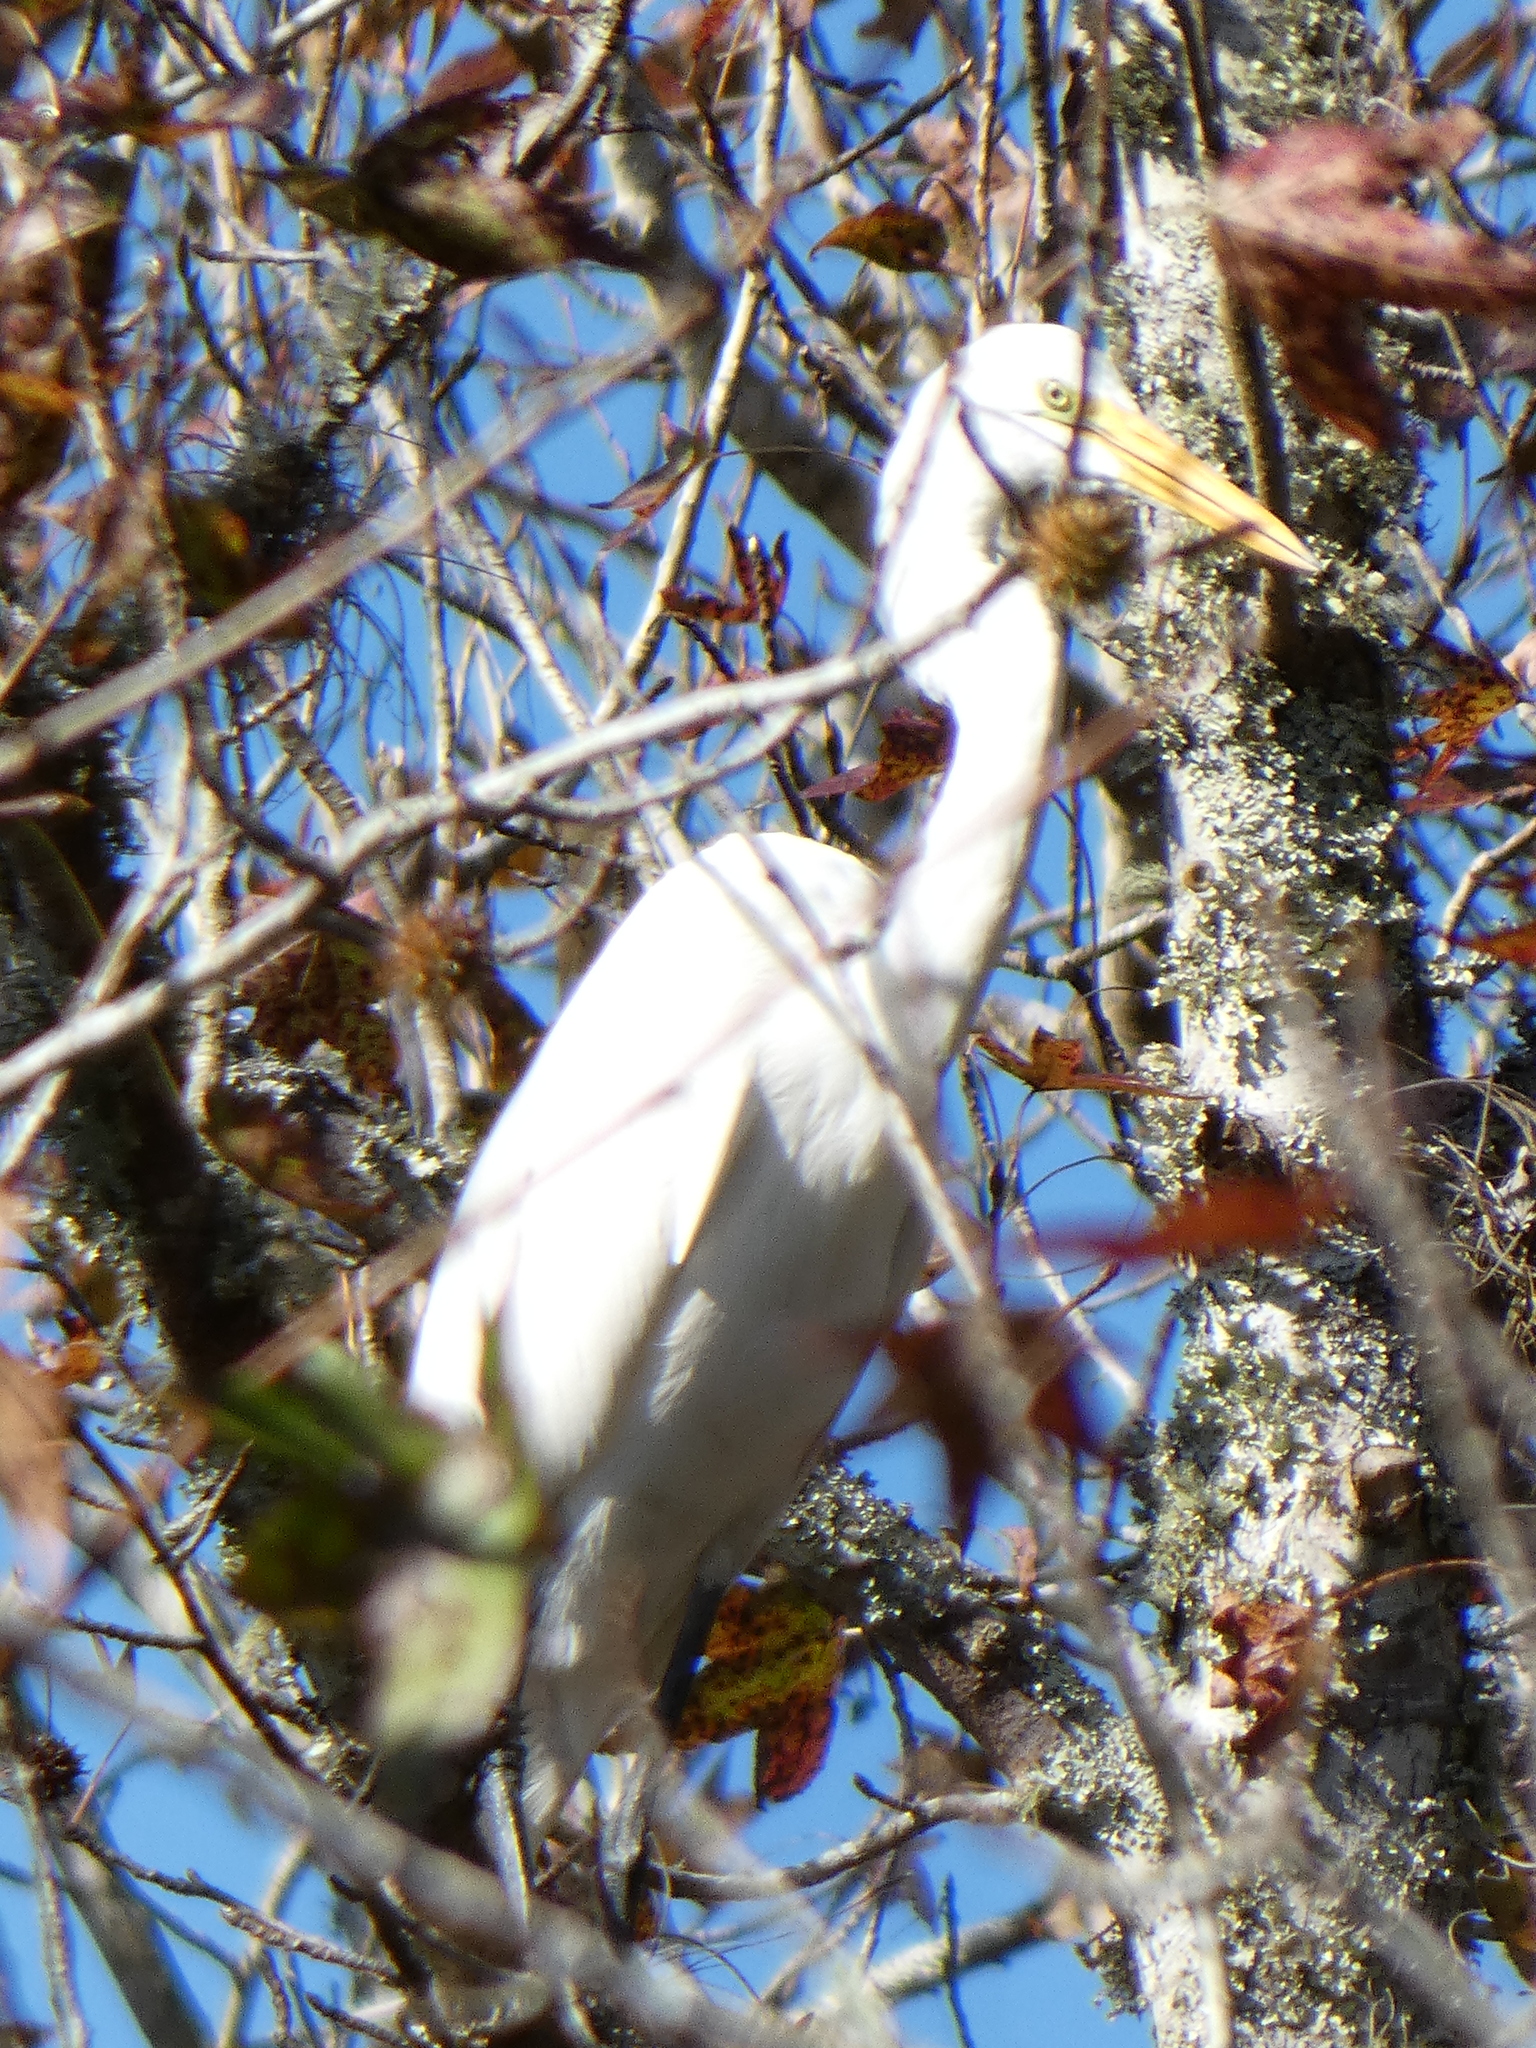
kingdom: Animalia
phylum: Chordata
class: Aves
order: Pelecaniformes
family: Ardeidae
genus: Ardea
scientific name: Ardea alba
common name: Great egret
